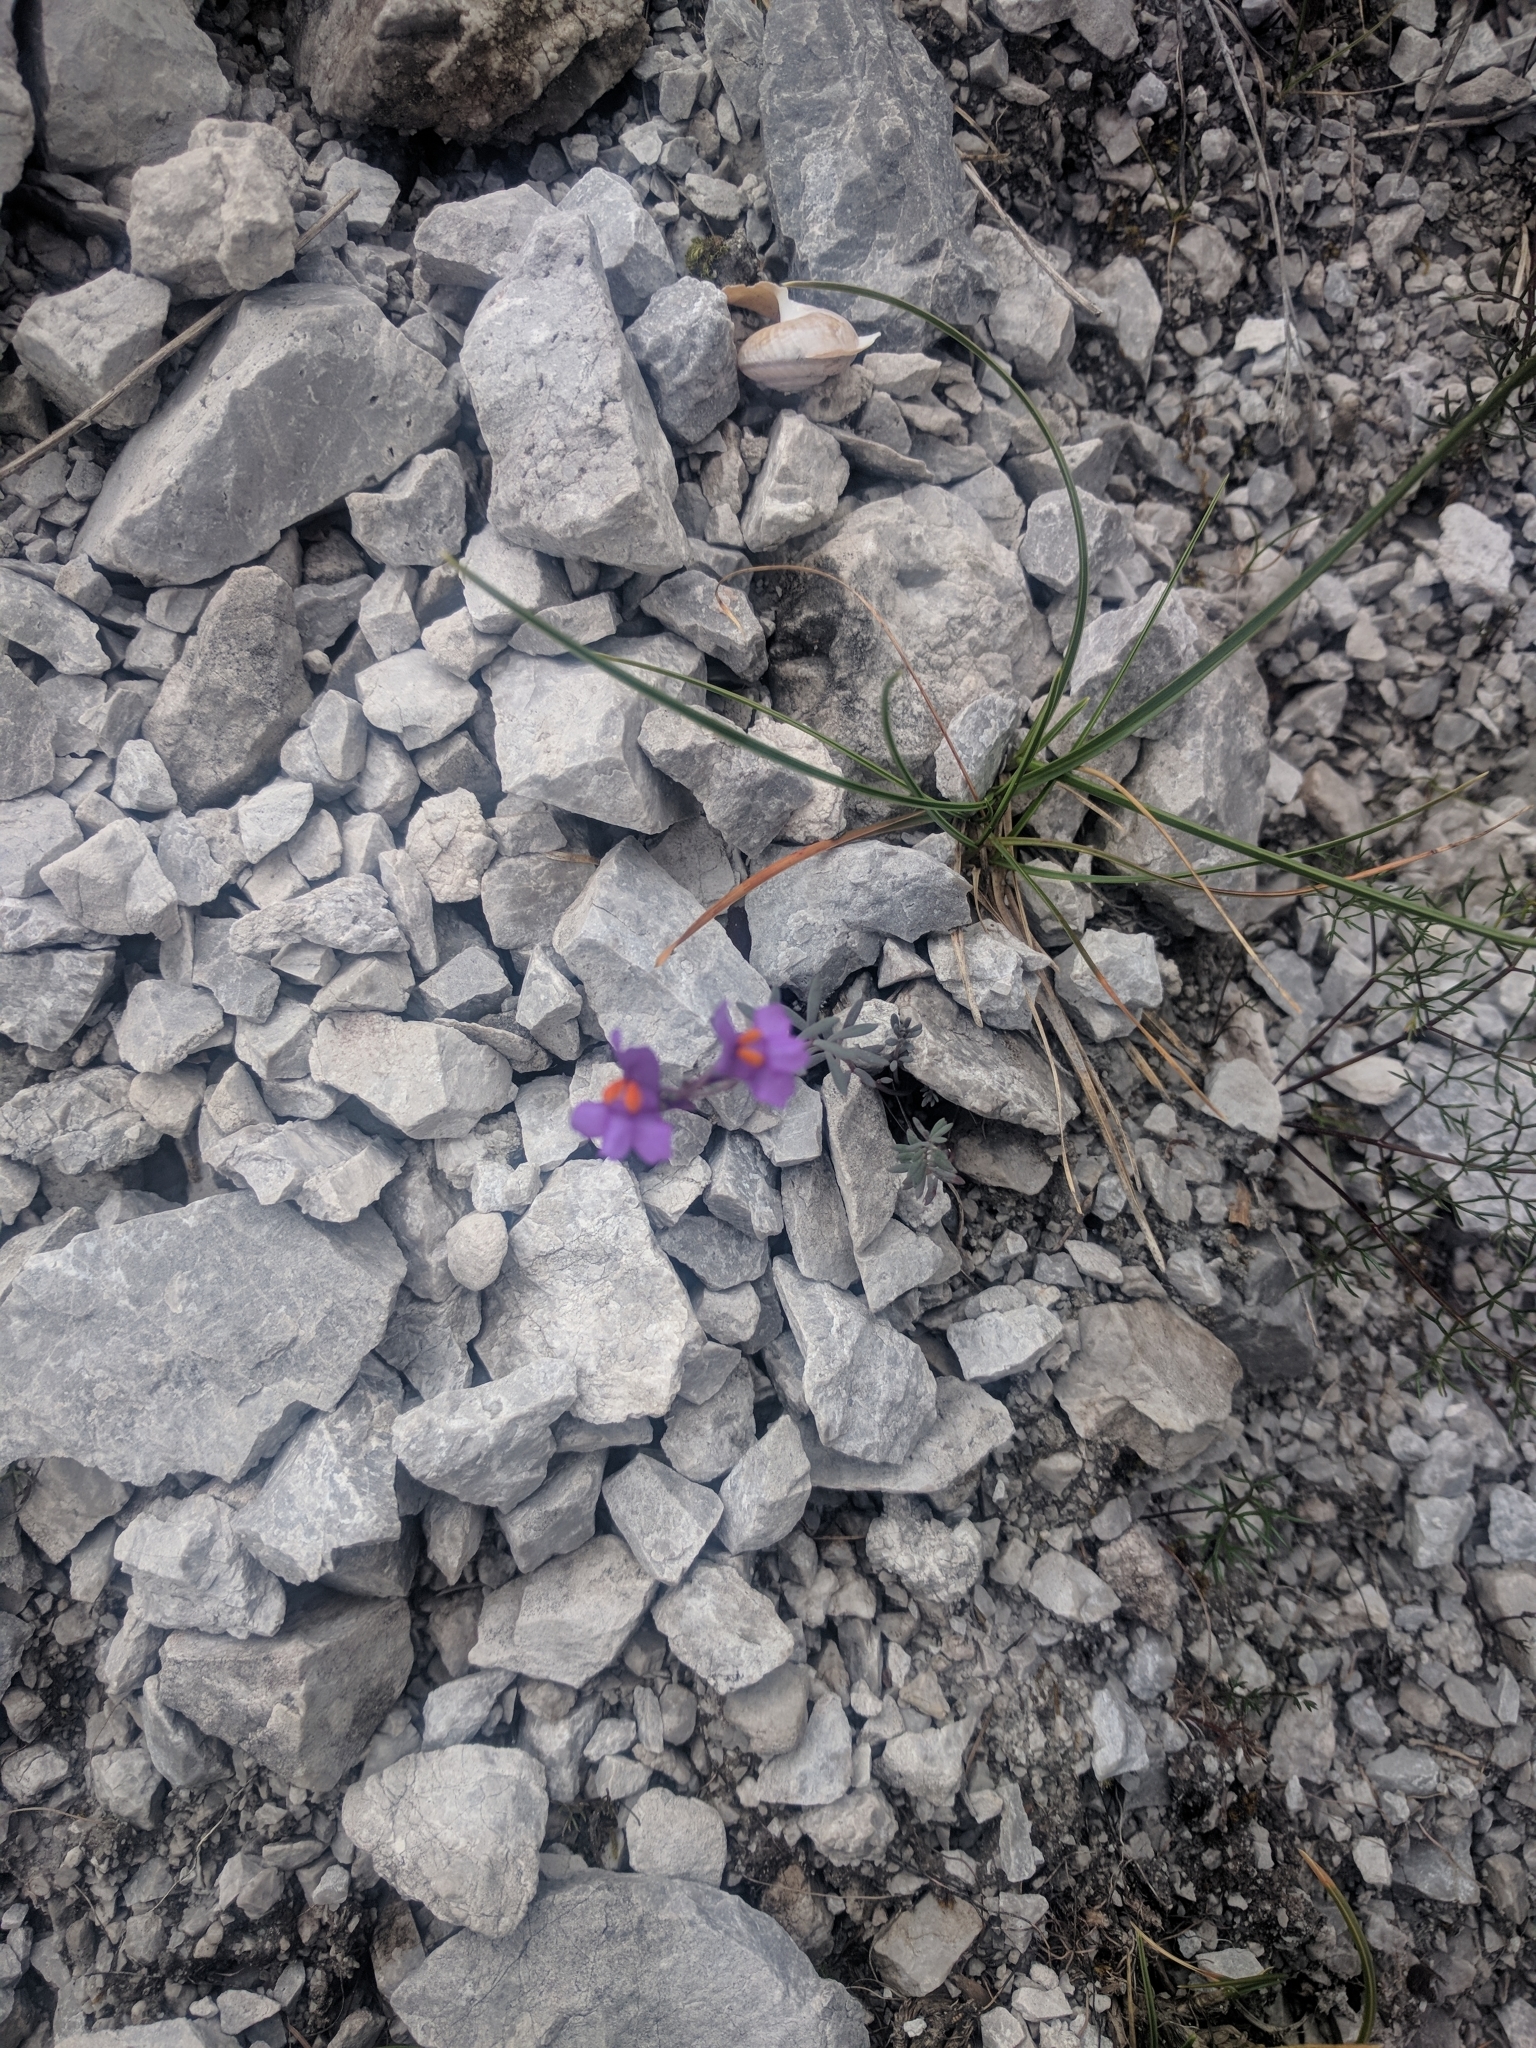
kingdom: Plantae
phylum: Tracheophyta
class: Magnoliopsida
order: Lamiales
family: Plantaginaceae
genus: Linaria
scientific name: Linaria alpina
